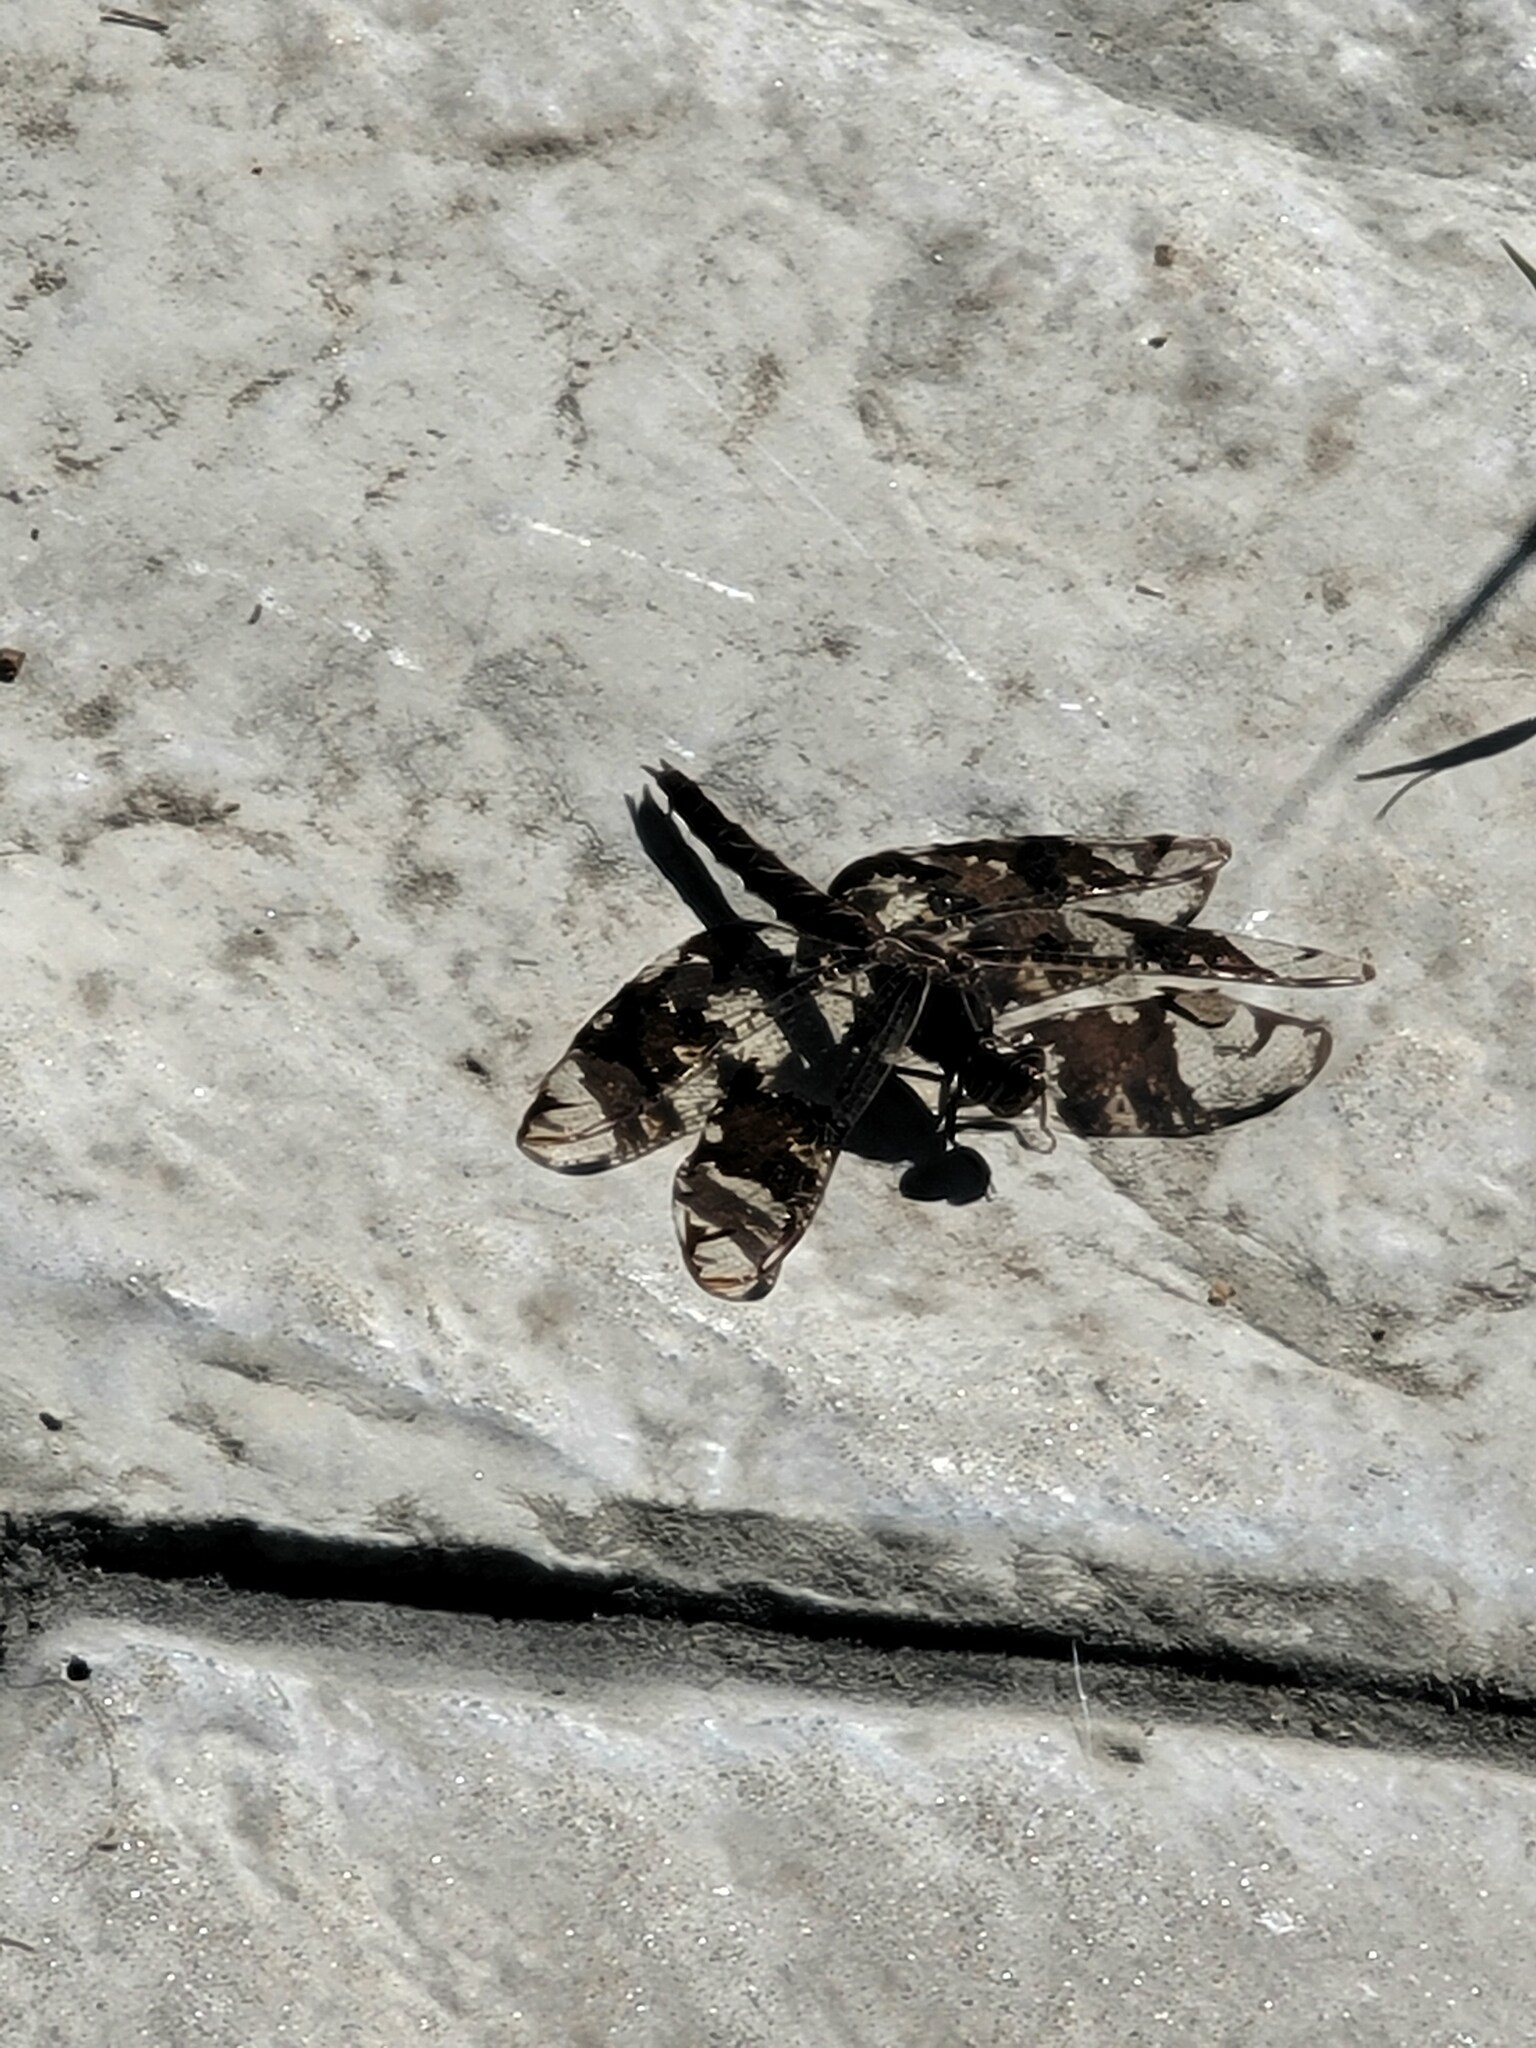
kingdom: Animalia
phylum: Arthropoda
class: Insecta
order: Odonata
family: Libellulidae
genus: Pseudoleon
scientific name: Pseudoleon superbus
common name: Filigree skimmer
